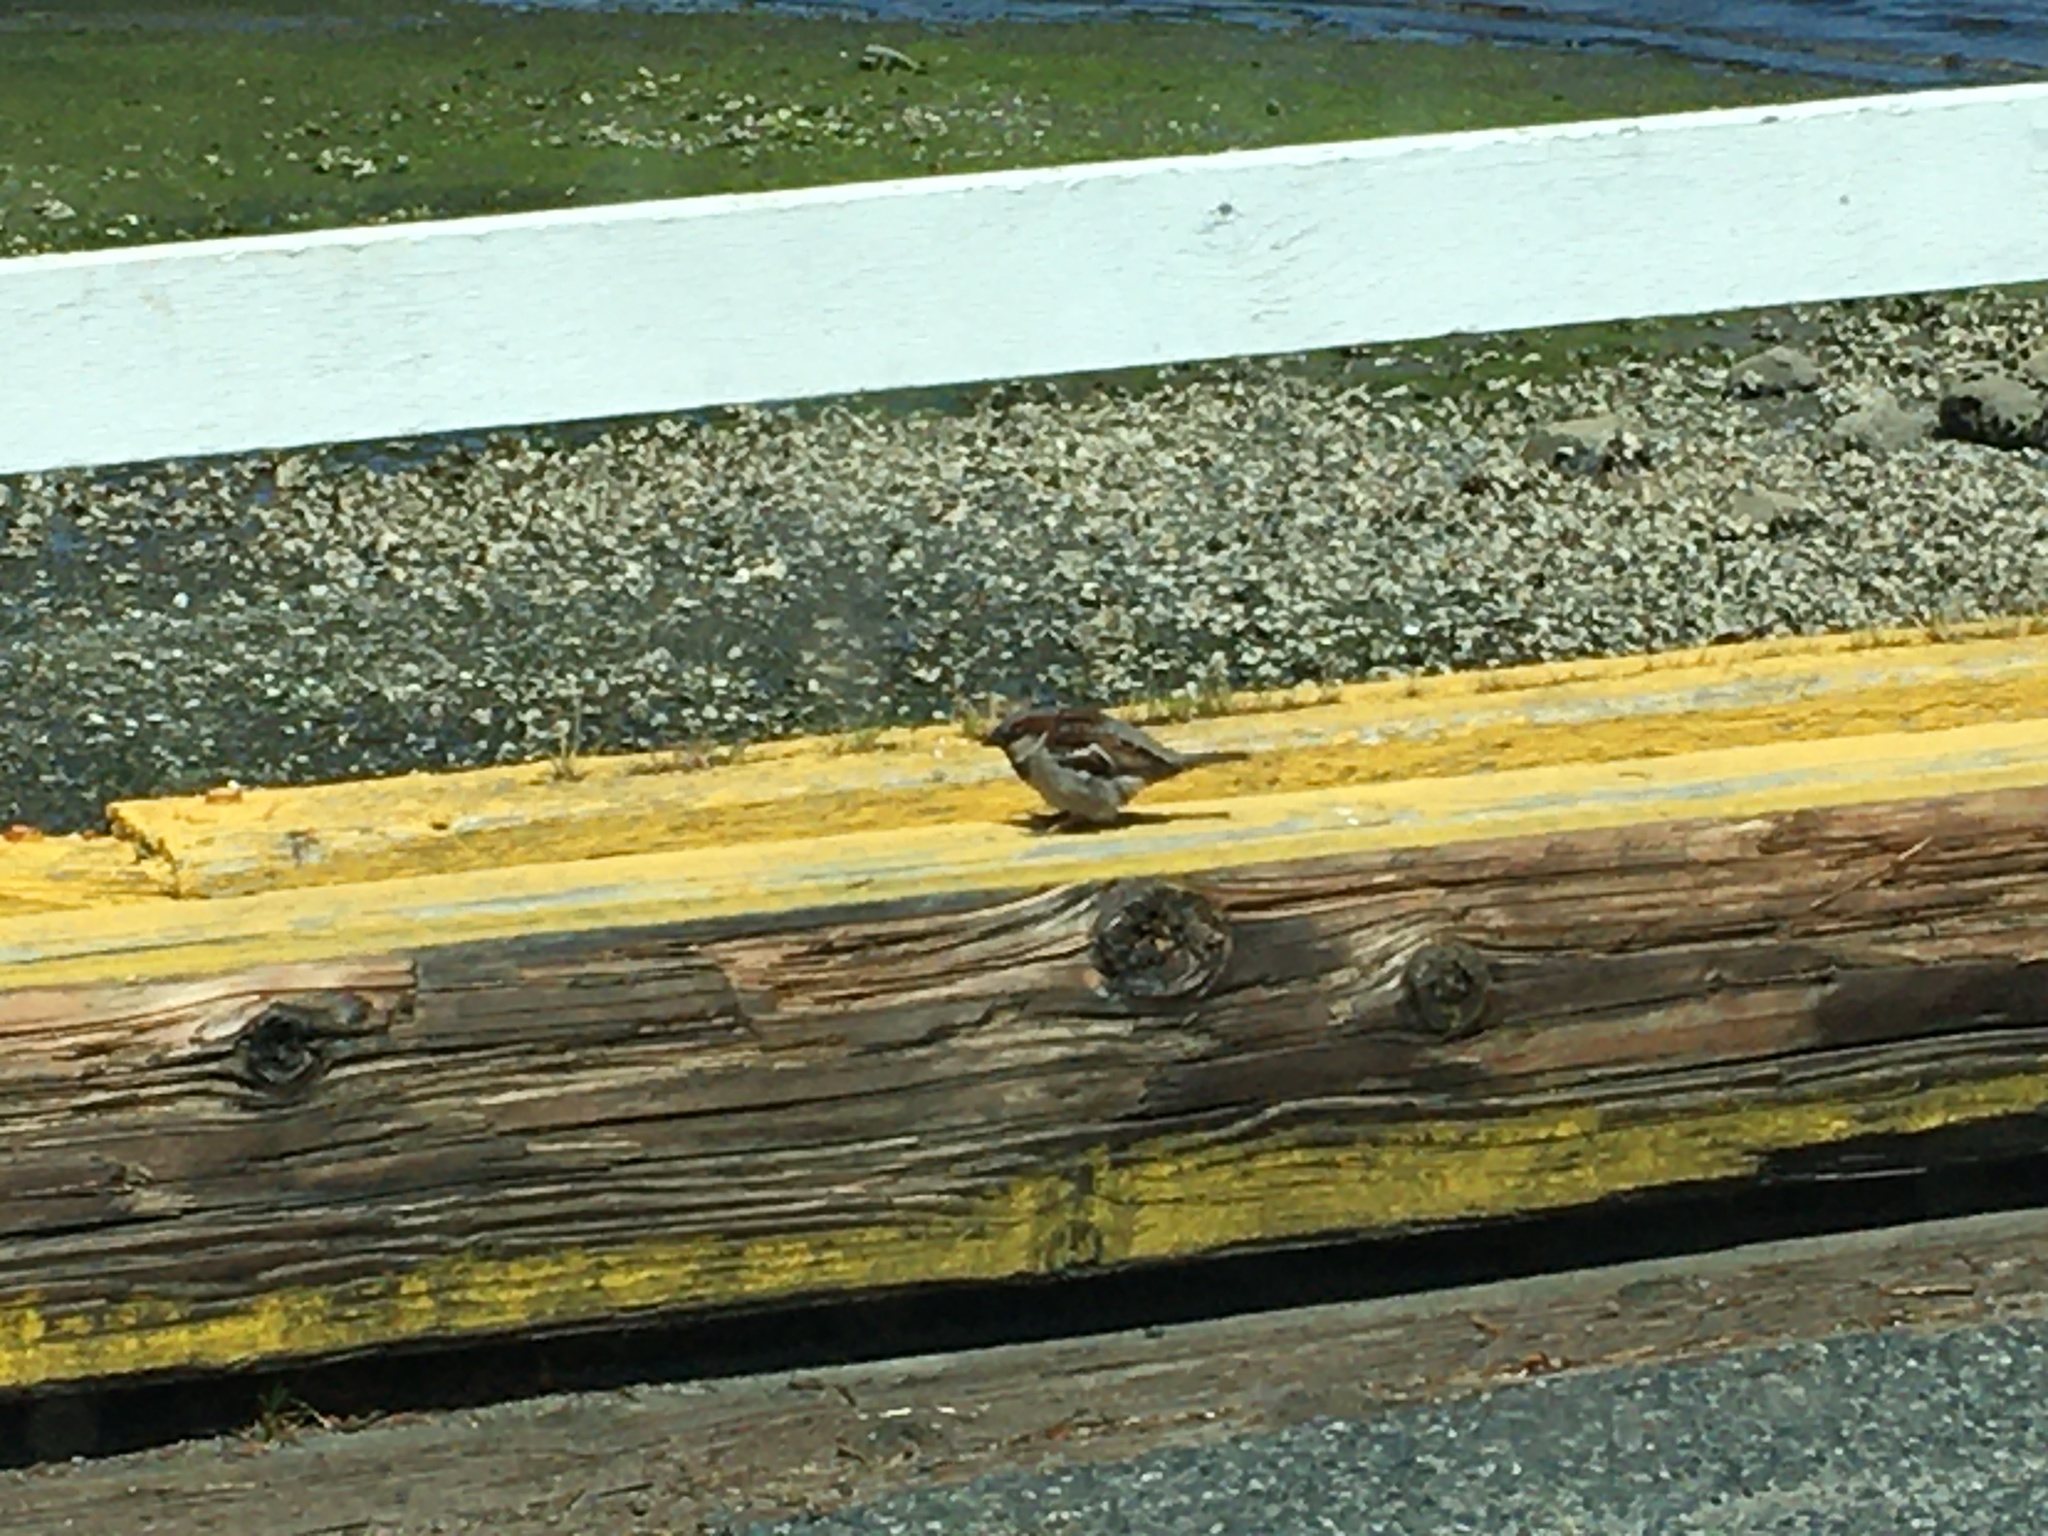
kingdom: Animalia
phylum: Chordata
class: Aves
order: Passeriformes
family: Passeridae
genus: Passer
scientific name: Passer domesticus
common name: House sparrow
